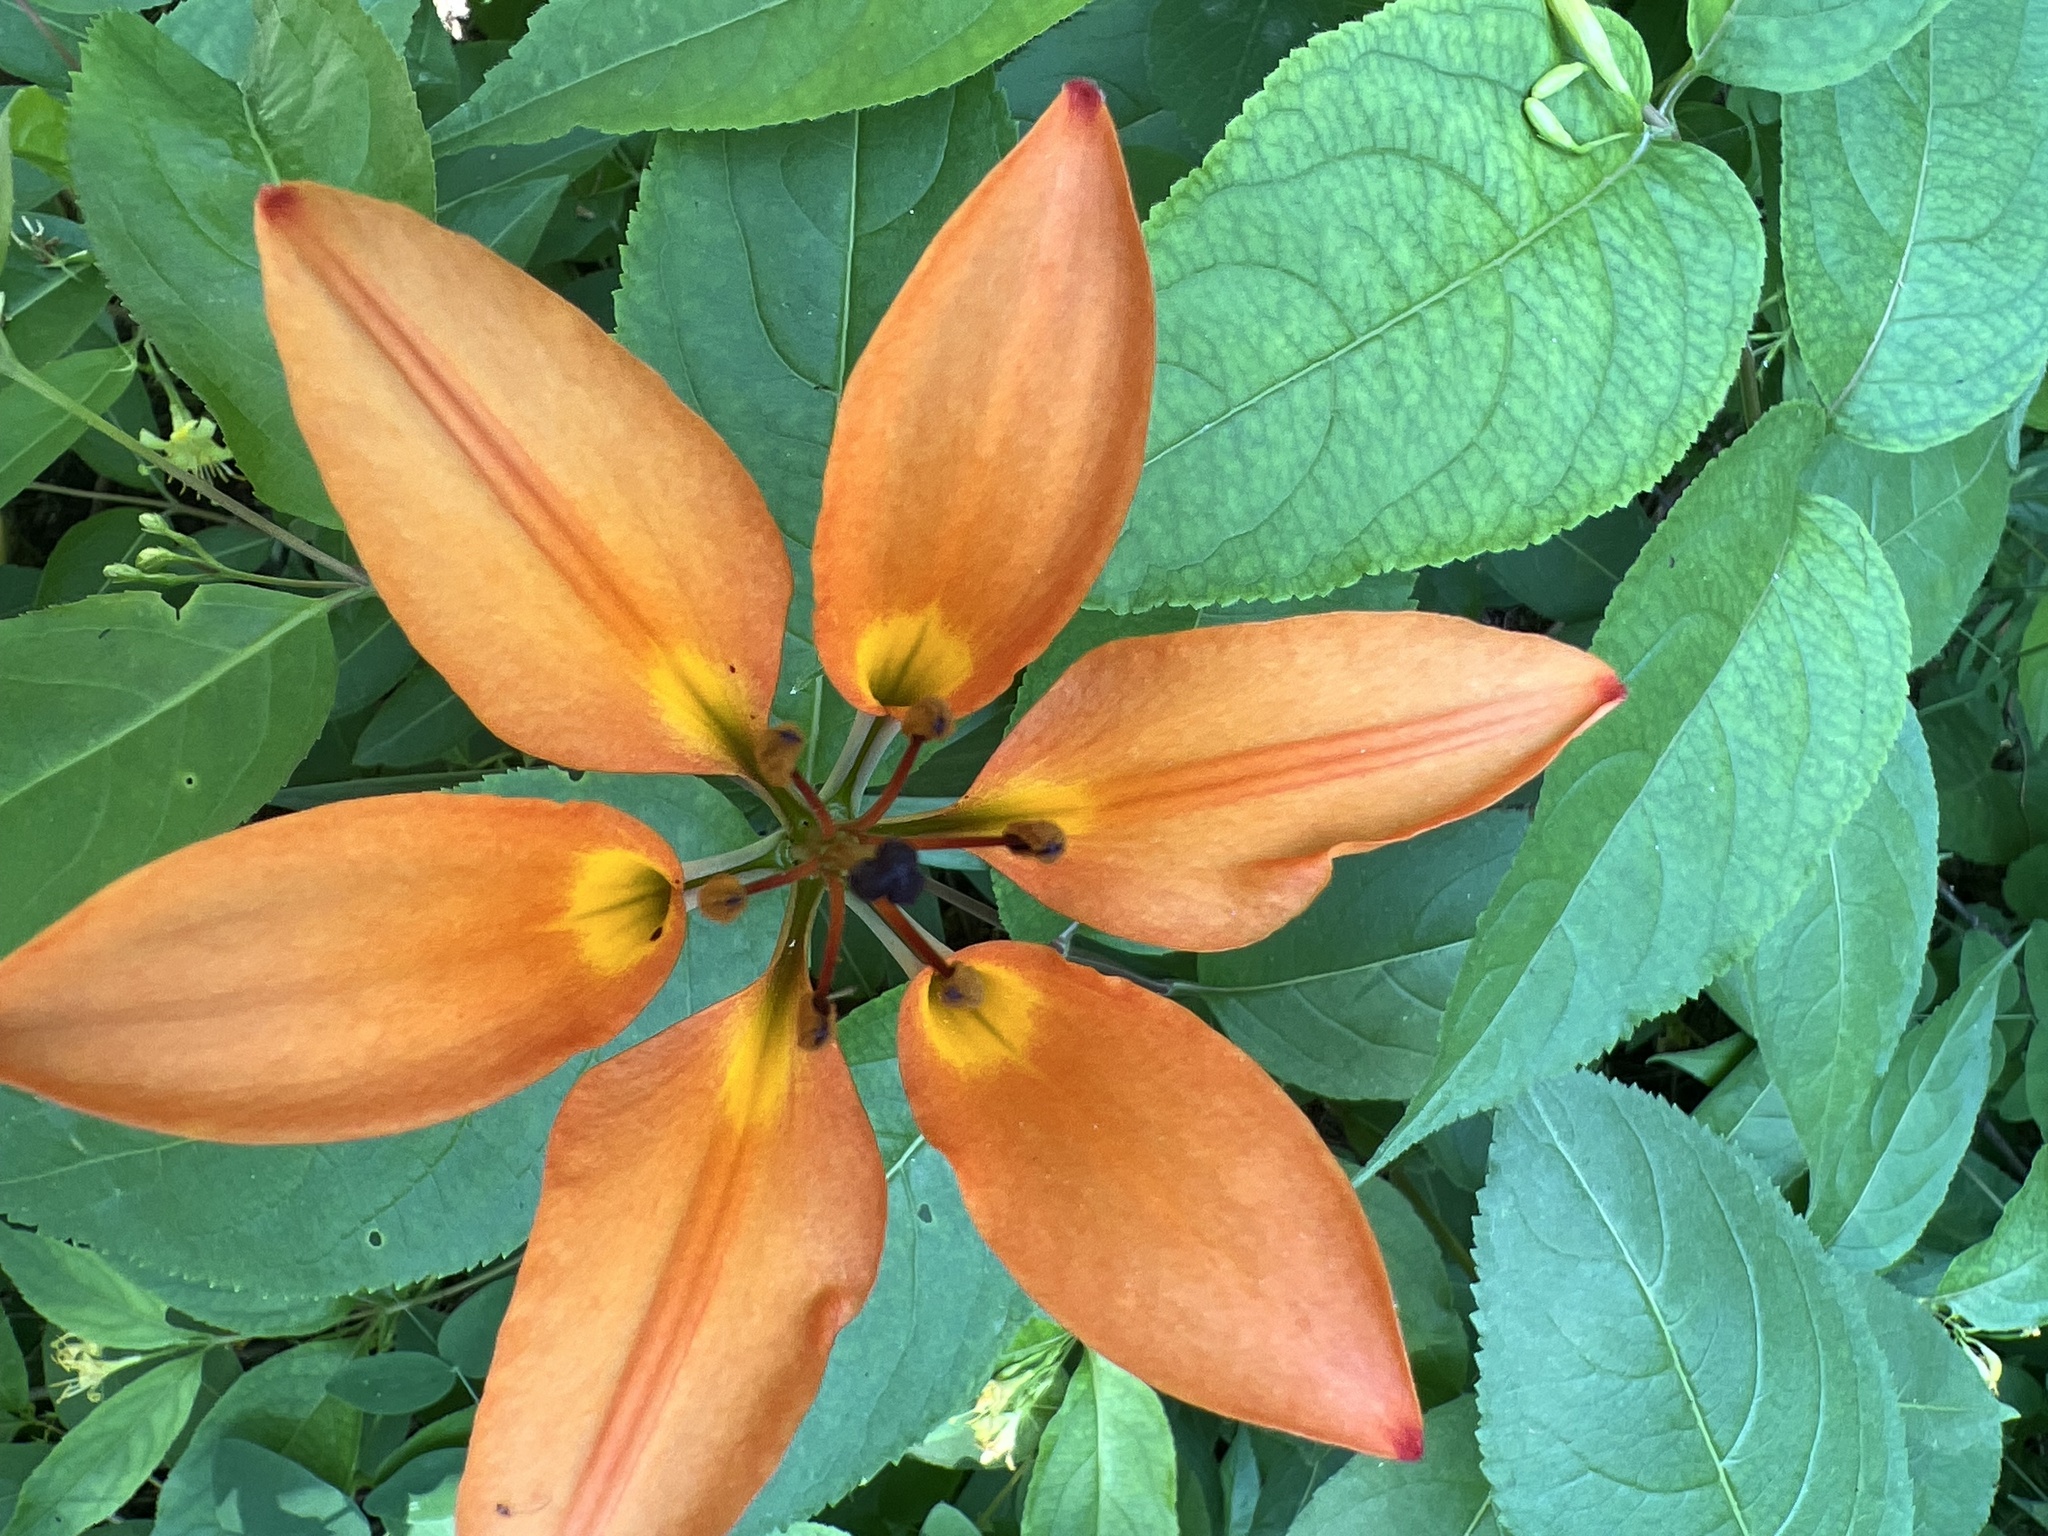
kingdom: Plantae
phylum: Tracheophyta
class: Liliopsida
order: Liliales
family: Liliaceae
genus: Lilium
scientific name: Lilium philadelphicum
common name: Red lily
